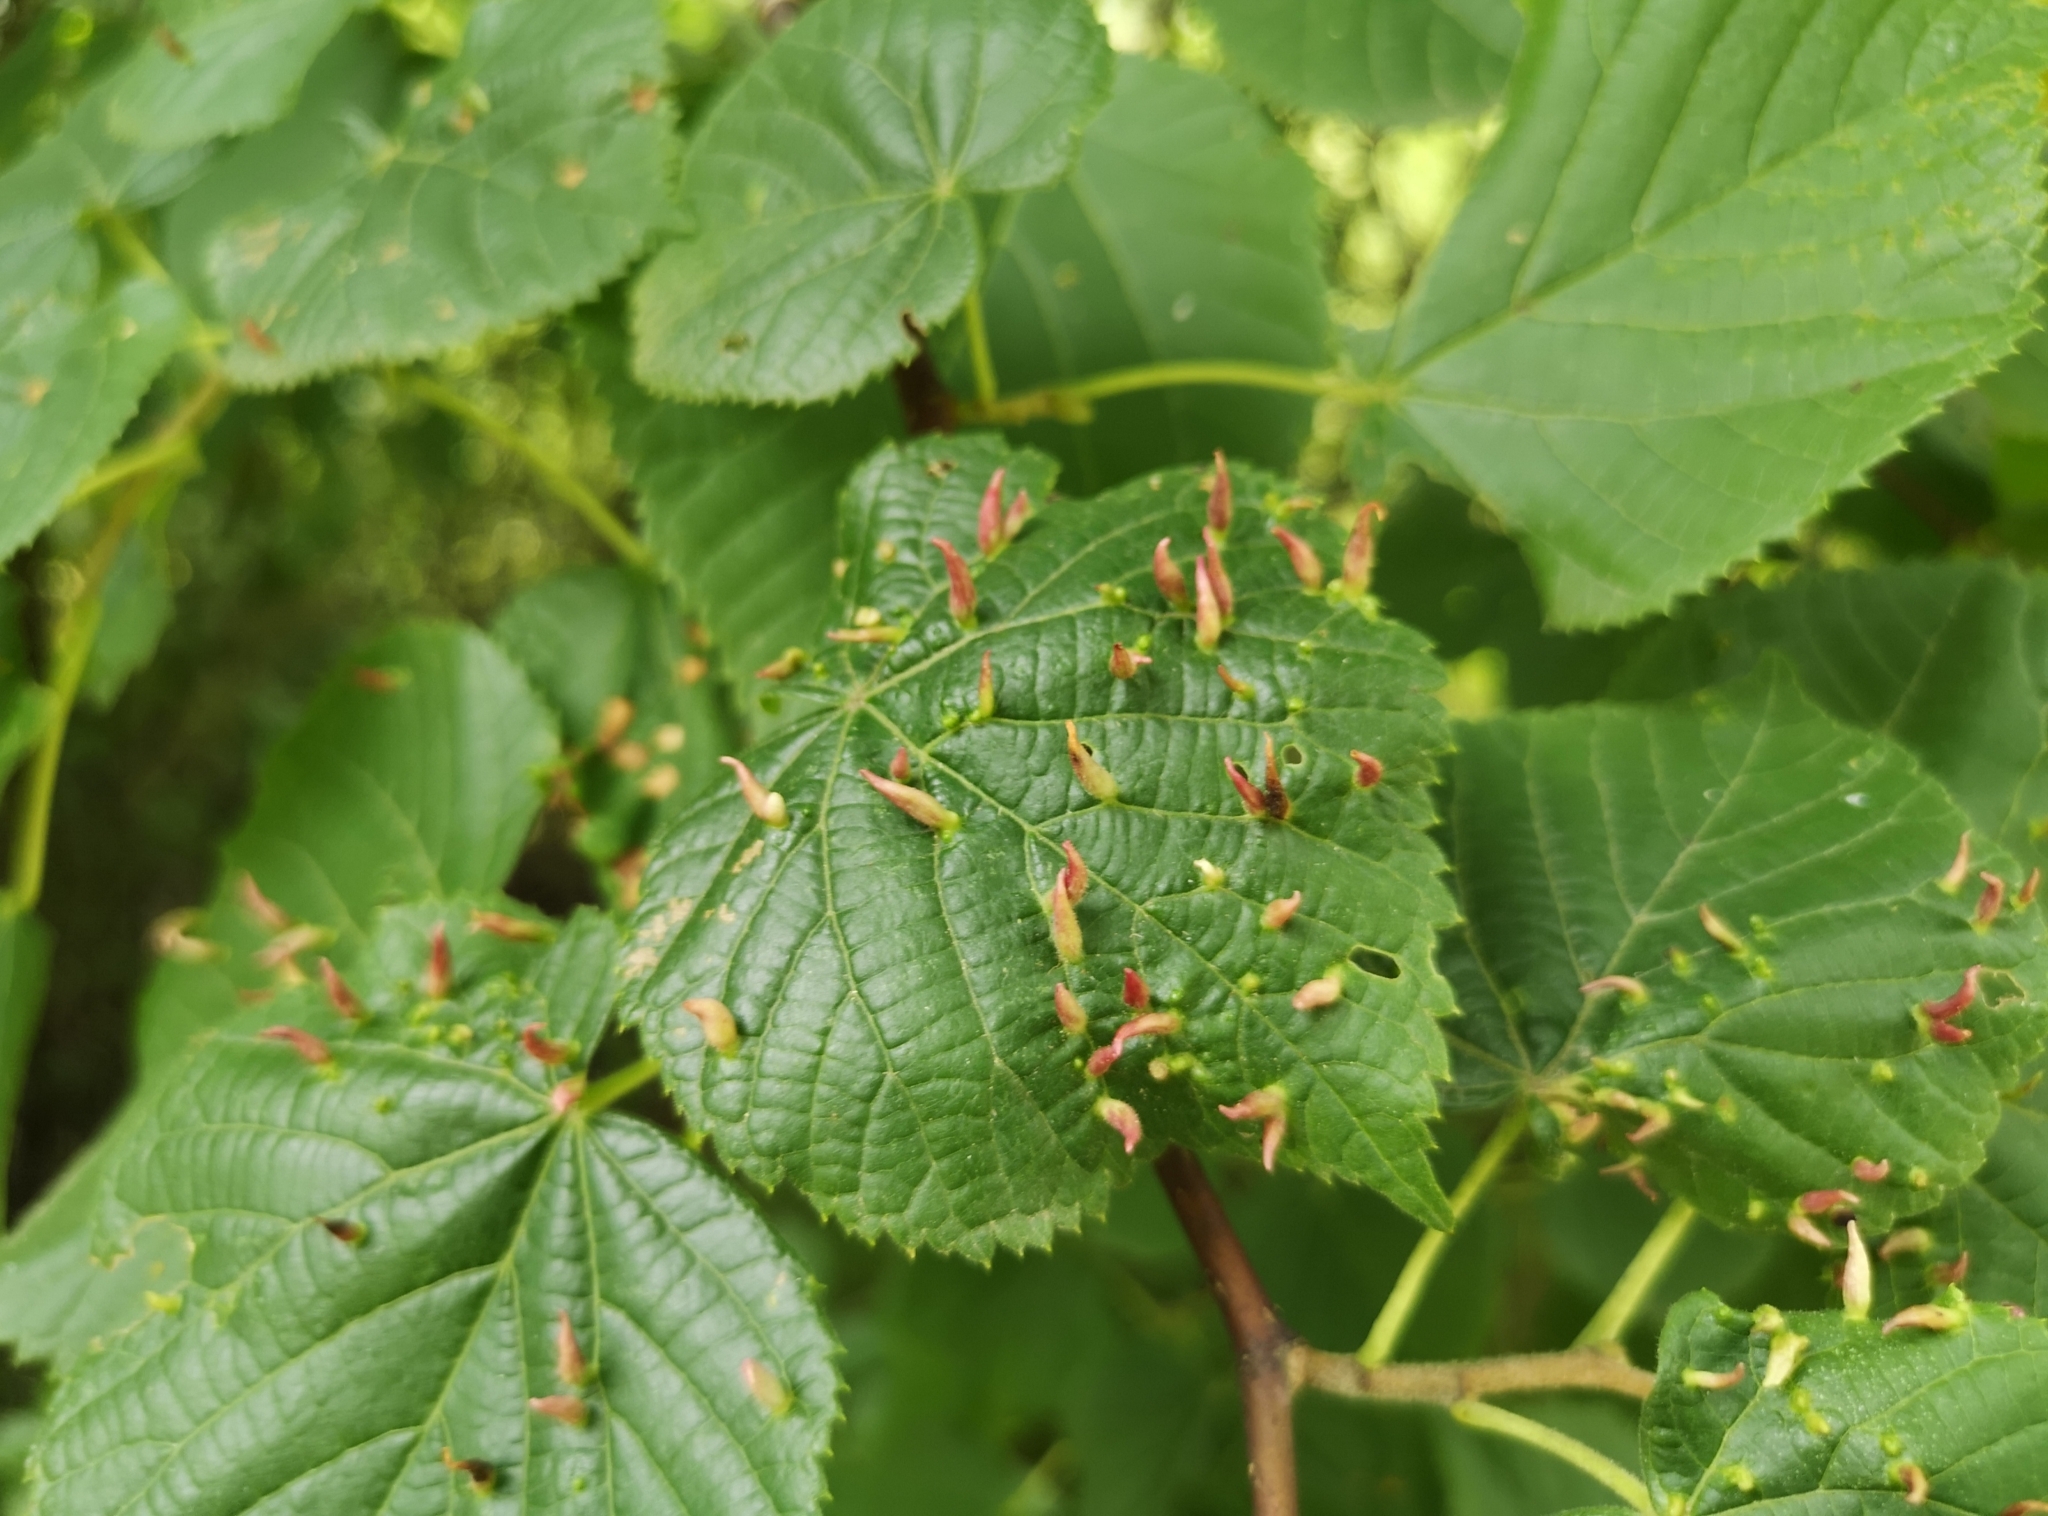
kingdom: Animalia
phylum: Arthropoda
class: Arachnida
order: Trombidiformes
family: Eriophyidae
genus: Eriophyes
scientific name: Eriophyes tiliae
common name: Red nail gall mite
